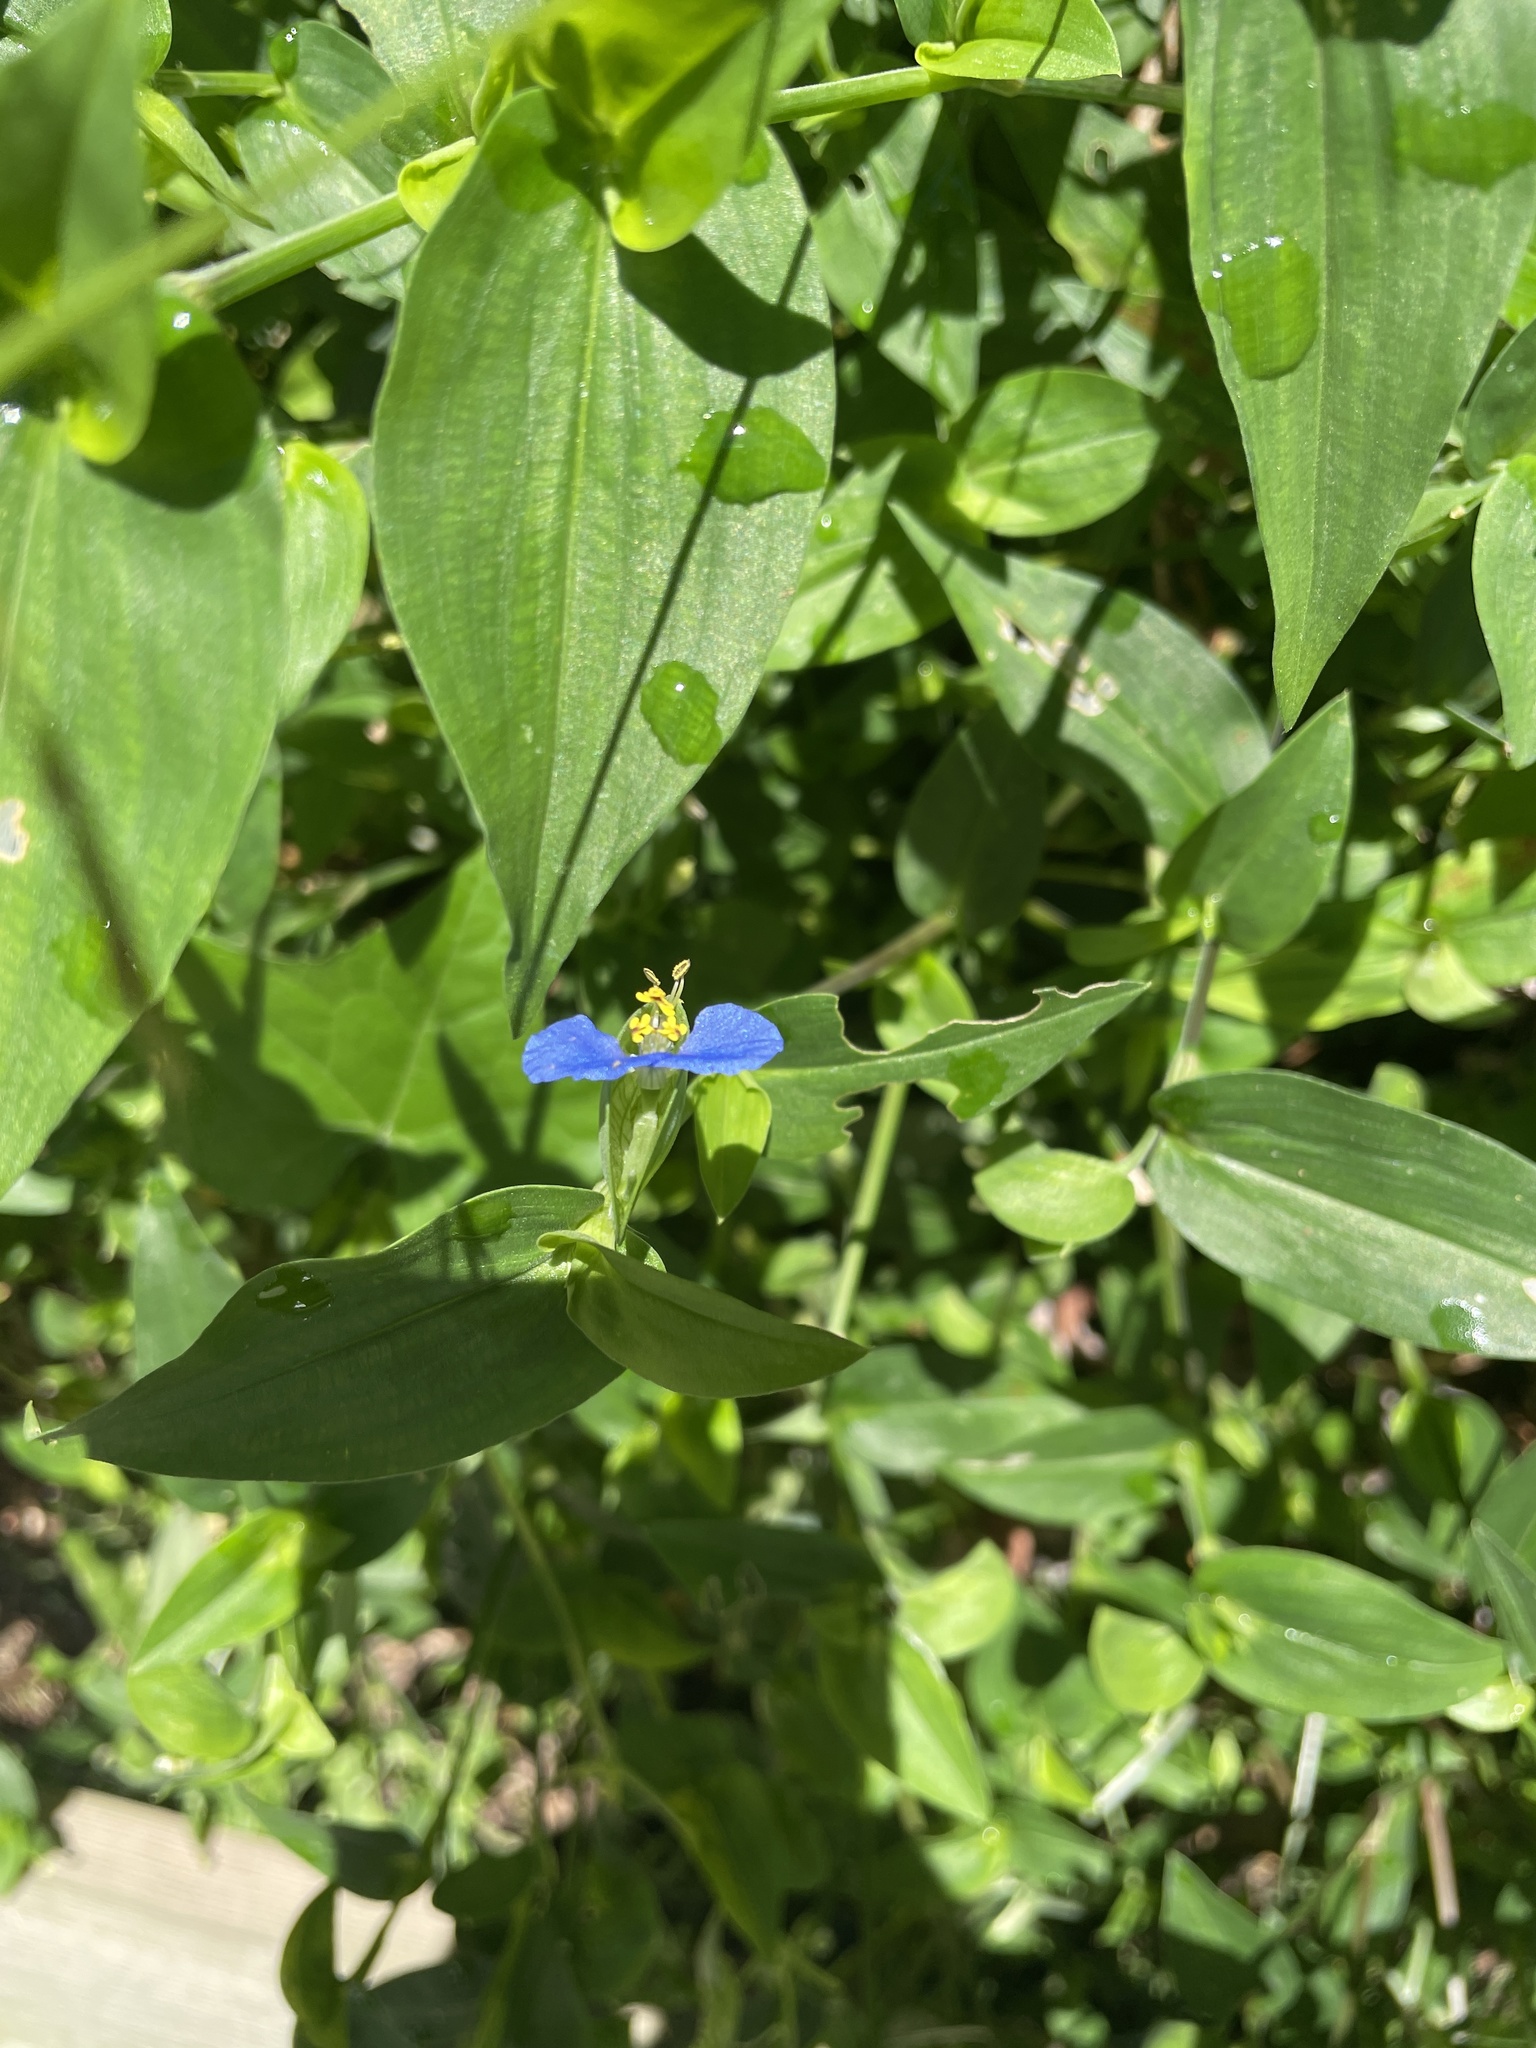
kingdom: Plantae
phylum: Tracheophyta
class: Liliopsida
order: Commelinales
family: Commelinaceae
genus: Commelina
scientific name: Commelina communis
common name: Asiatic dayflower
